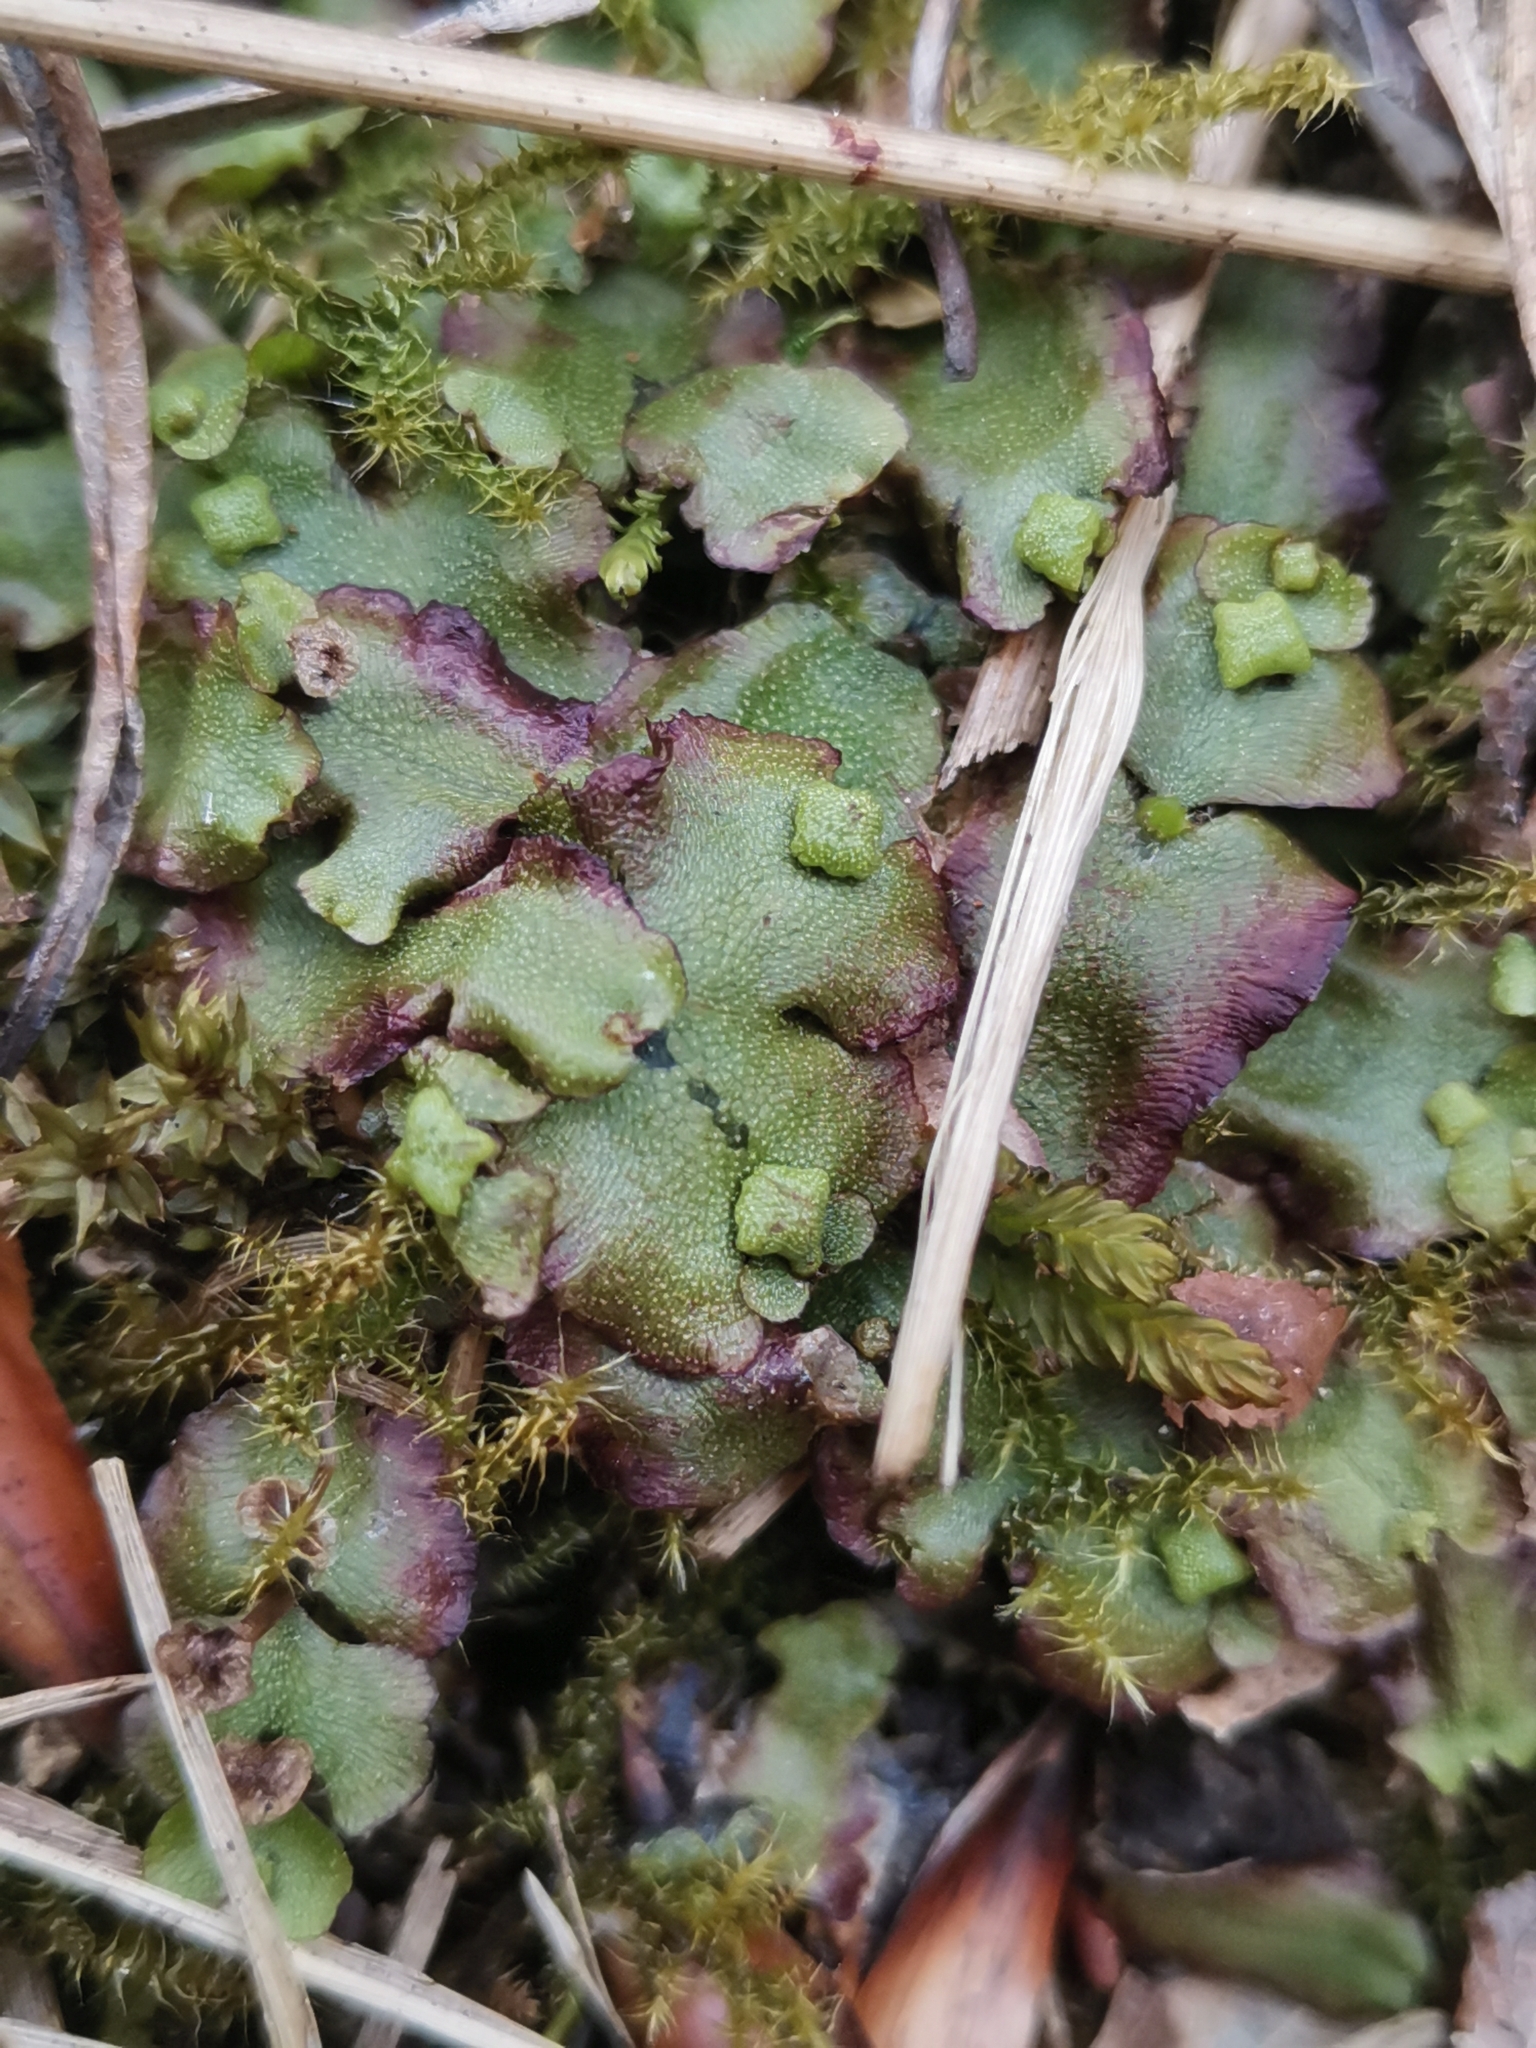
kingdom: Plantae
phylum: Marchantiophyta
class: Marchantiopsida
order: Marchantiales
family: Marchantiaceae
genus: Marchantia
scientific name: Marchantia quadrata
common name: Narrow mushroom-headed liverwort
